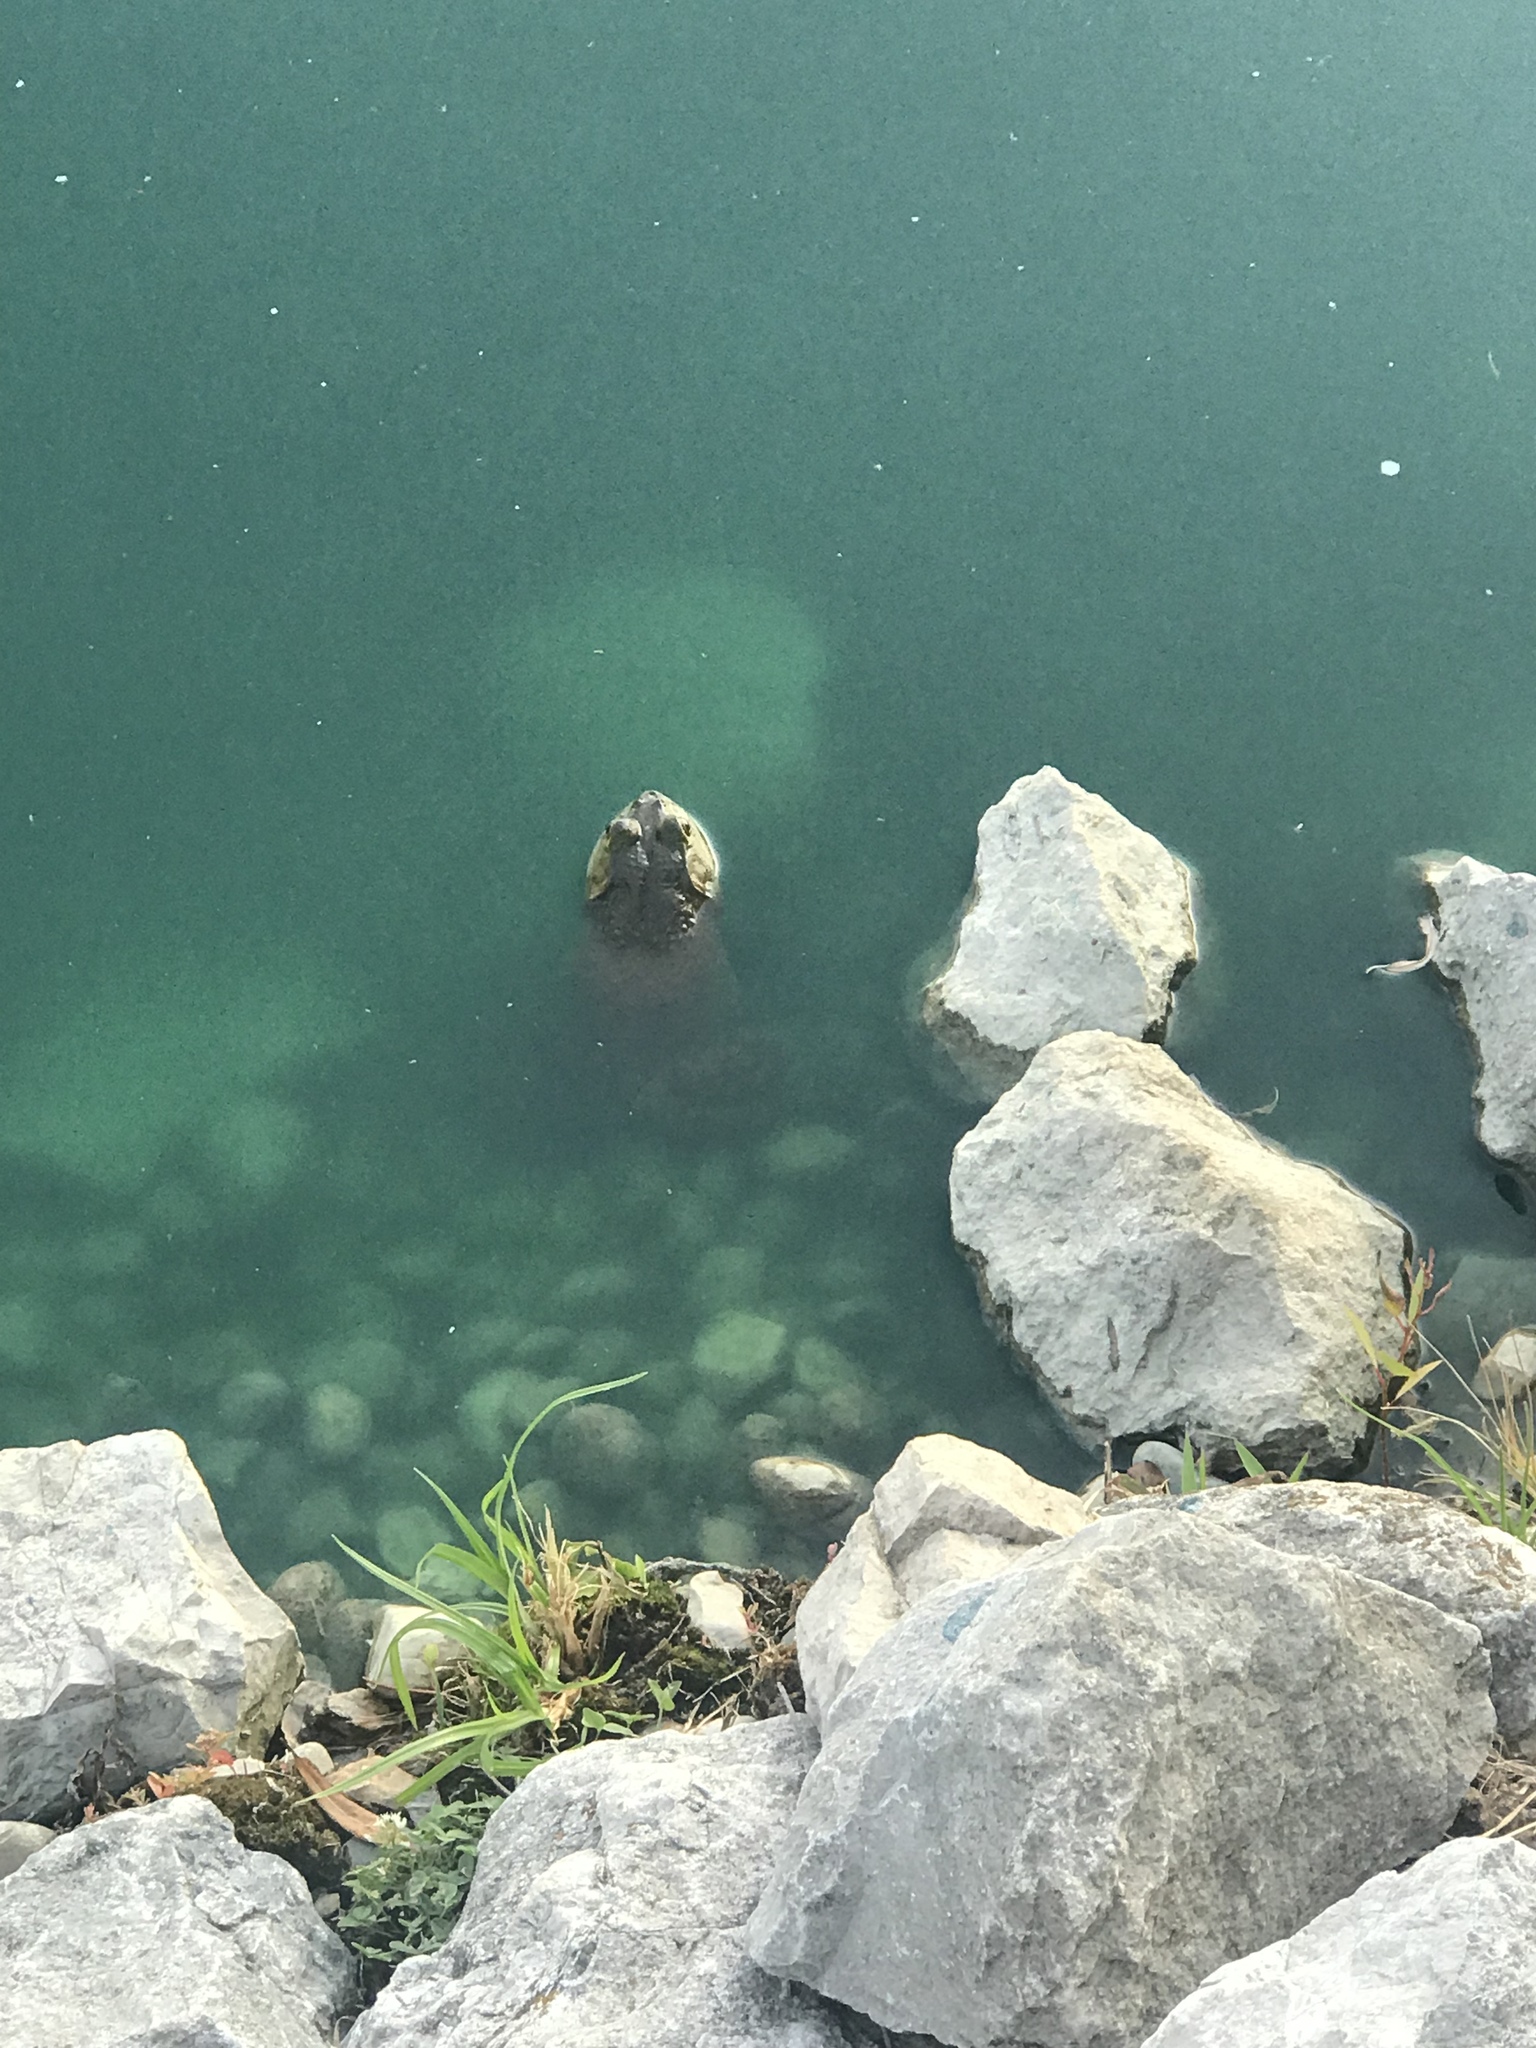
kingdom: Animalia
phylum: Chordata
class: Amphibia
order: Anura
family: Ranidae
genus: Lithobates
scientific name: Lithobates catesbeianus
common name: American bullfrog
